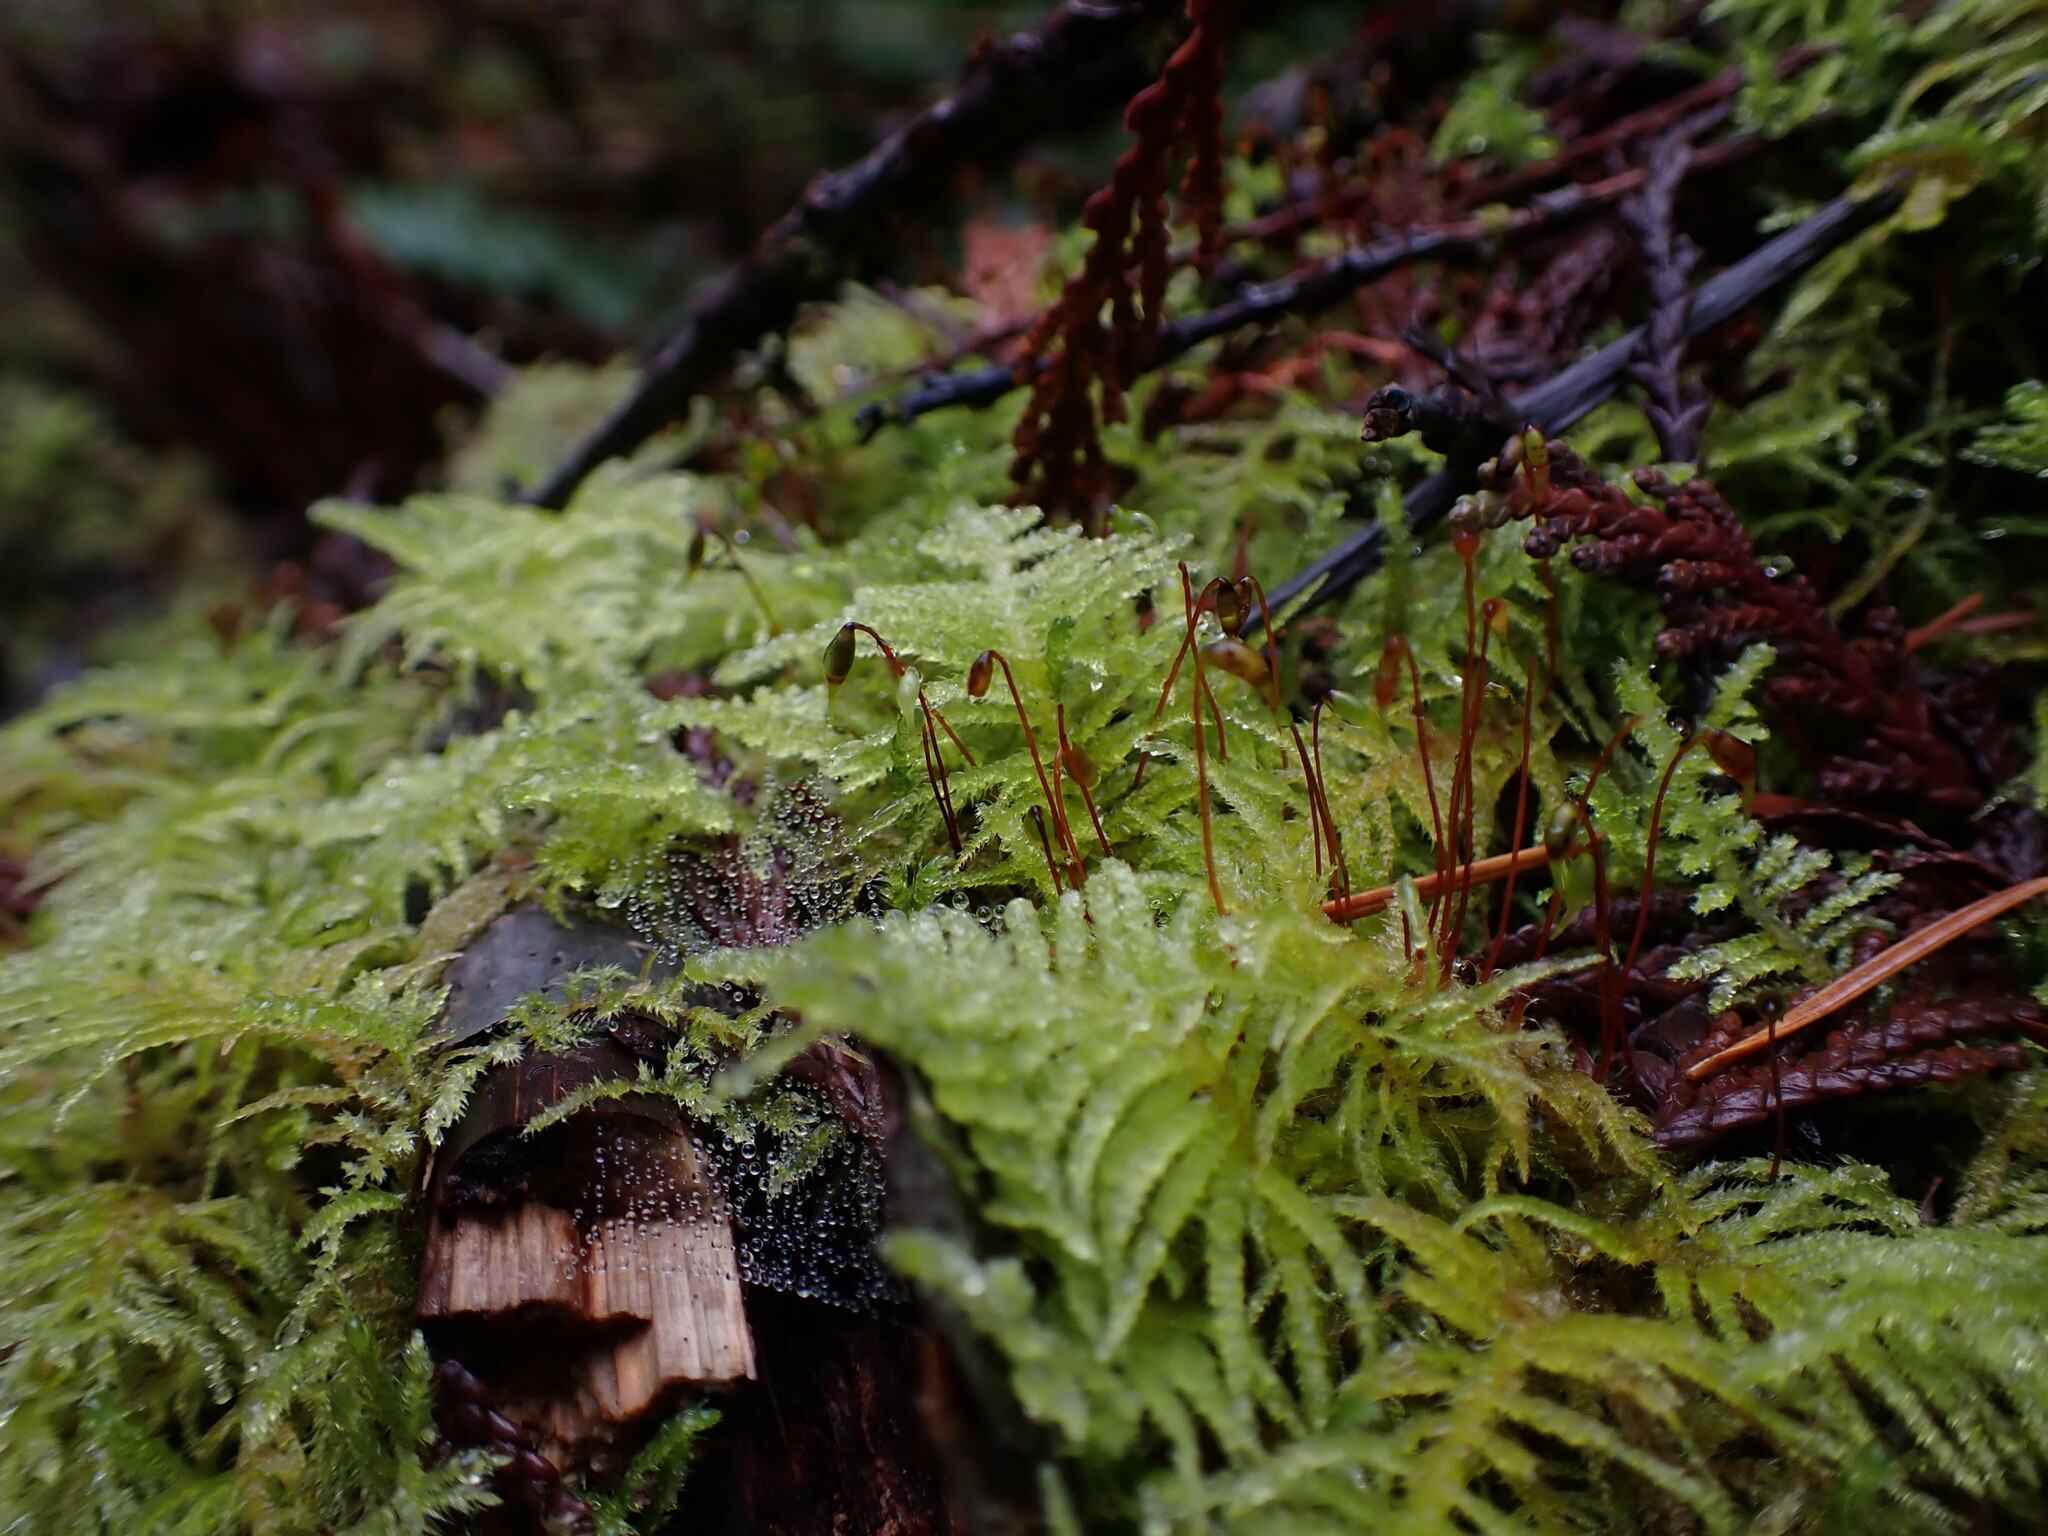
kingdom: Plantae
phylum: Bryophyta
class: Bryopsida
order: Hypnales
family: Brachytheciaceae
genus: Kindbergia
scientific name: Kindbergia oregana
